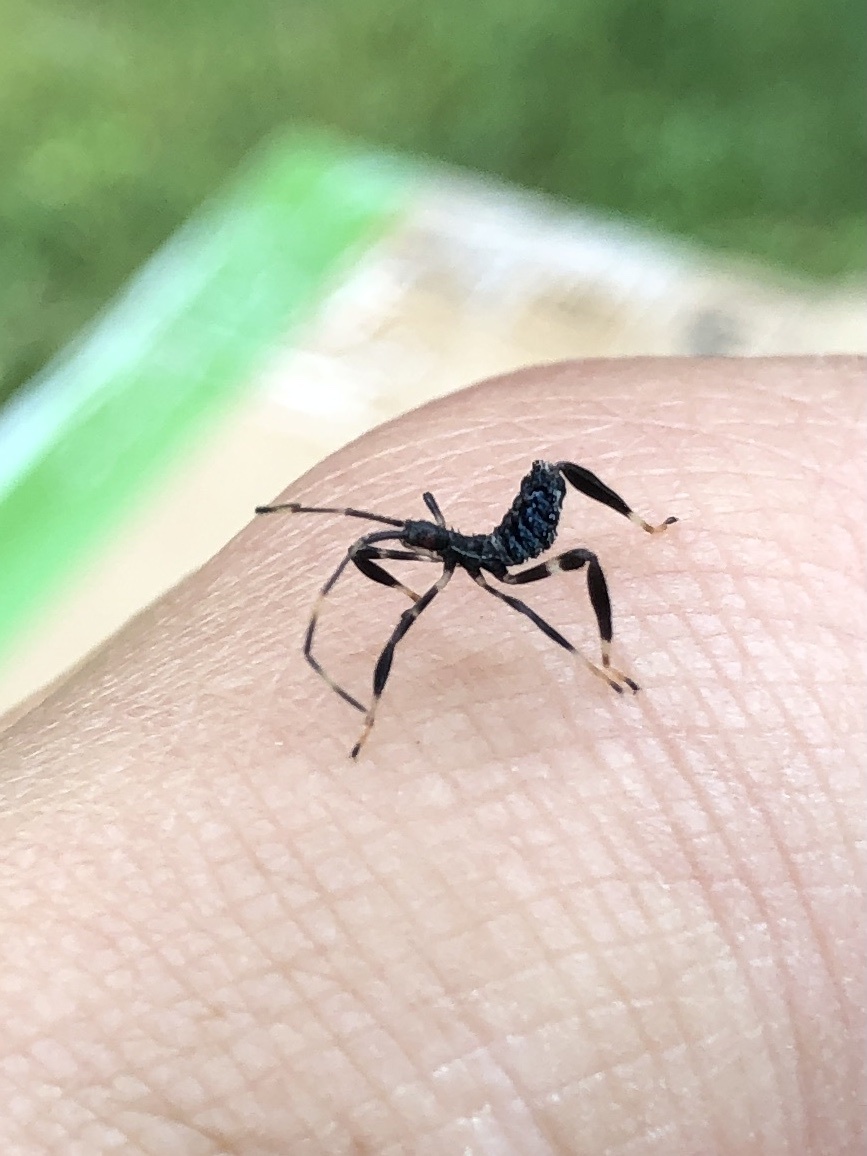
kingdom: Animalia
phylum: Arthropoda
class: Insecta
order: Hemiptera
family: Coreidae
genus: Acanthocephala
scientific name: Acanthocephala terminalis
